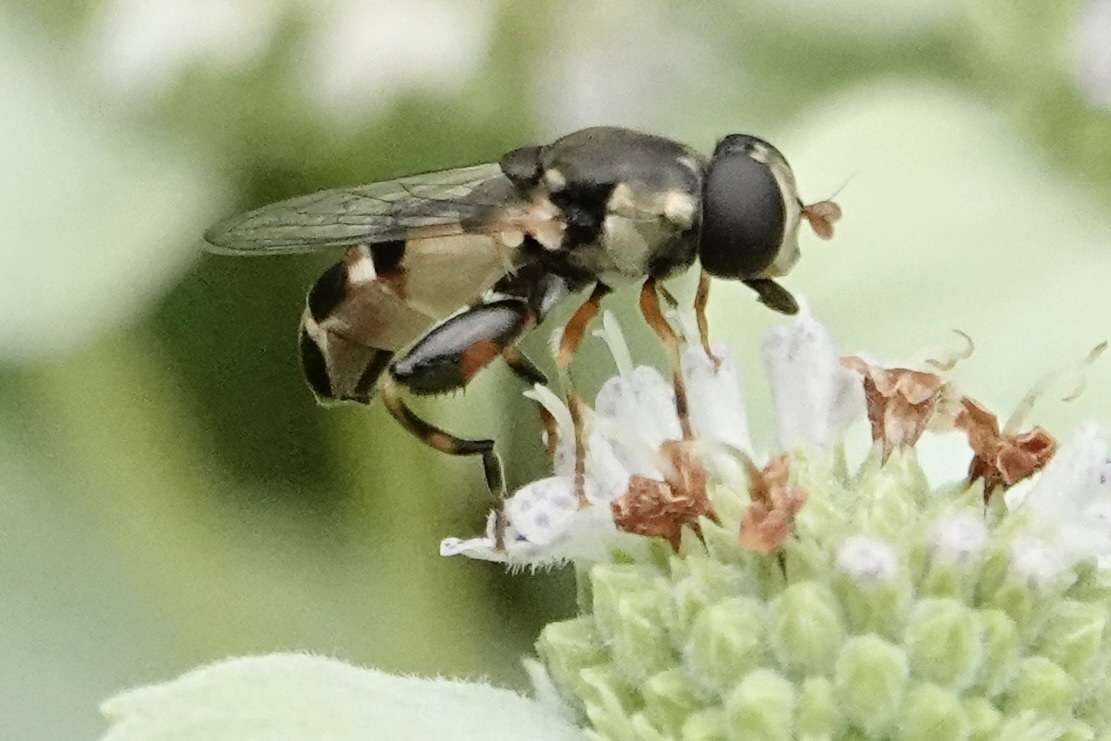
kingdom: Animalia
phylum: Arthropoda
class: Insecta
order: Diptera
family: Syrphidae
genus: Syritta
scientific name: Syritta pipiens
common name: Hover fly
